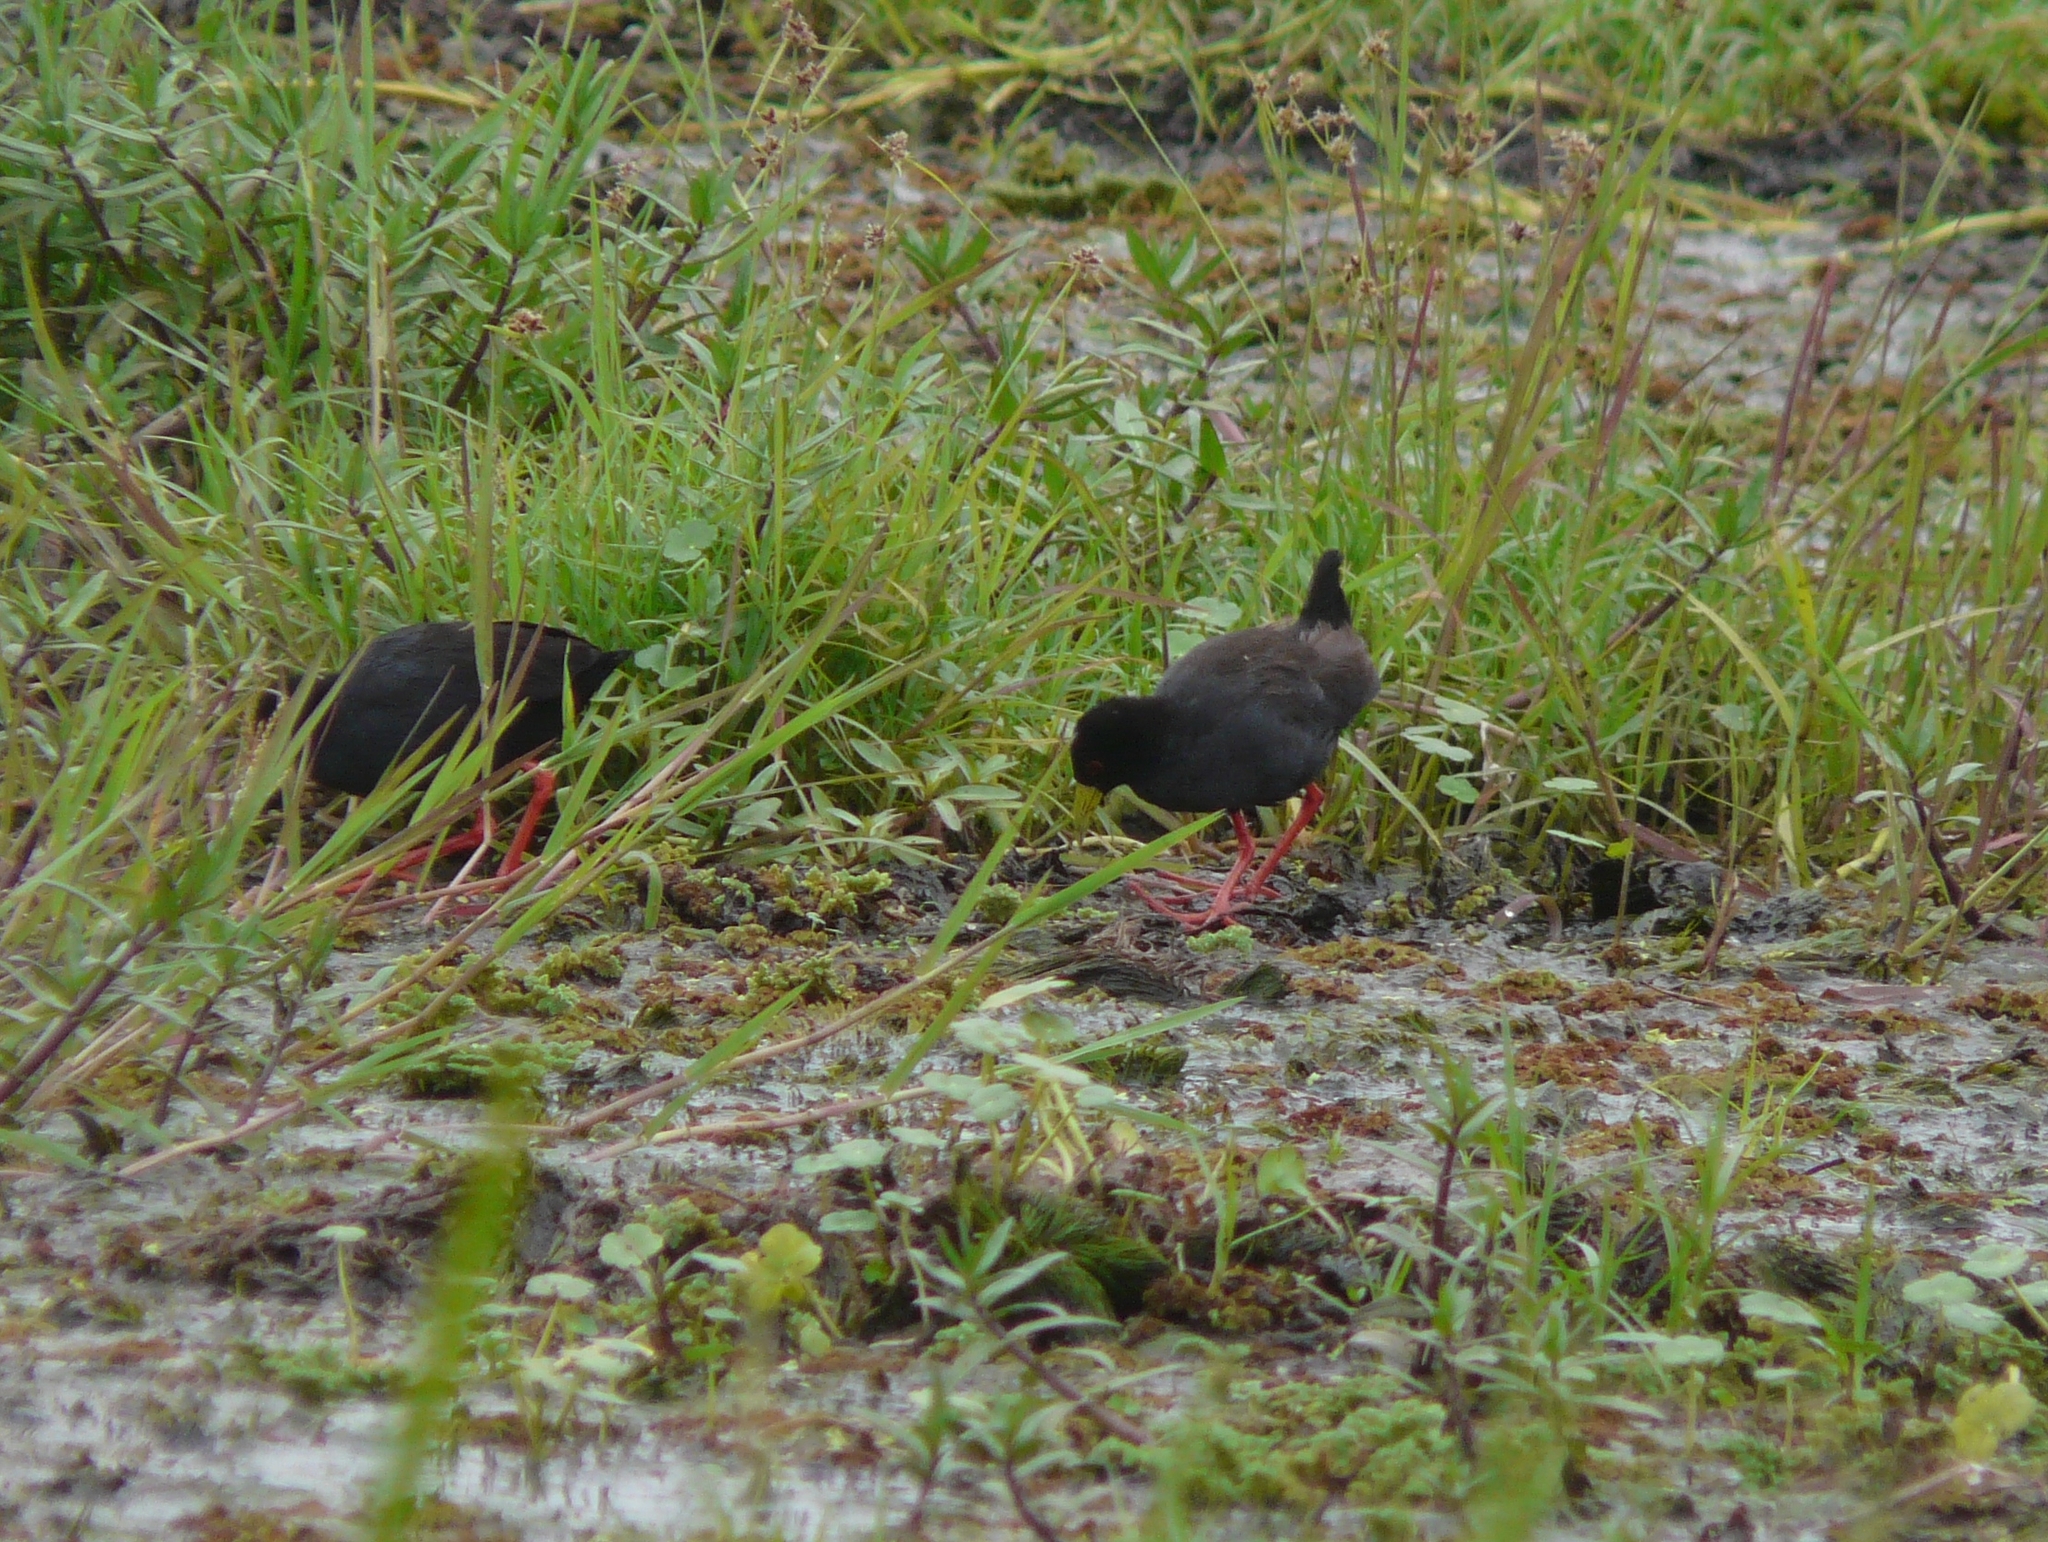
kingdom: Animalia
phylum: Chordata
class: Aves
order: Gruiformes
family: Rallidae
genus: Amaurornis
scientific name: Amaurornis flavirostra
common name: Black crake
